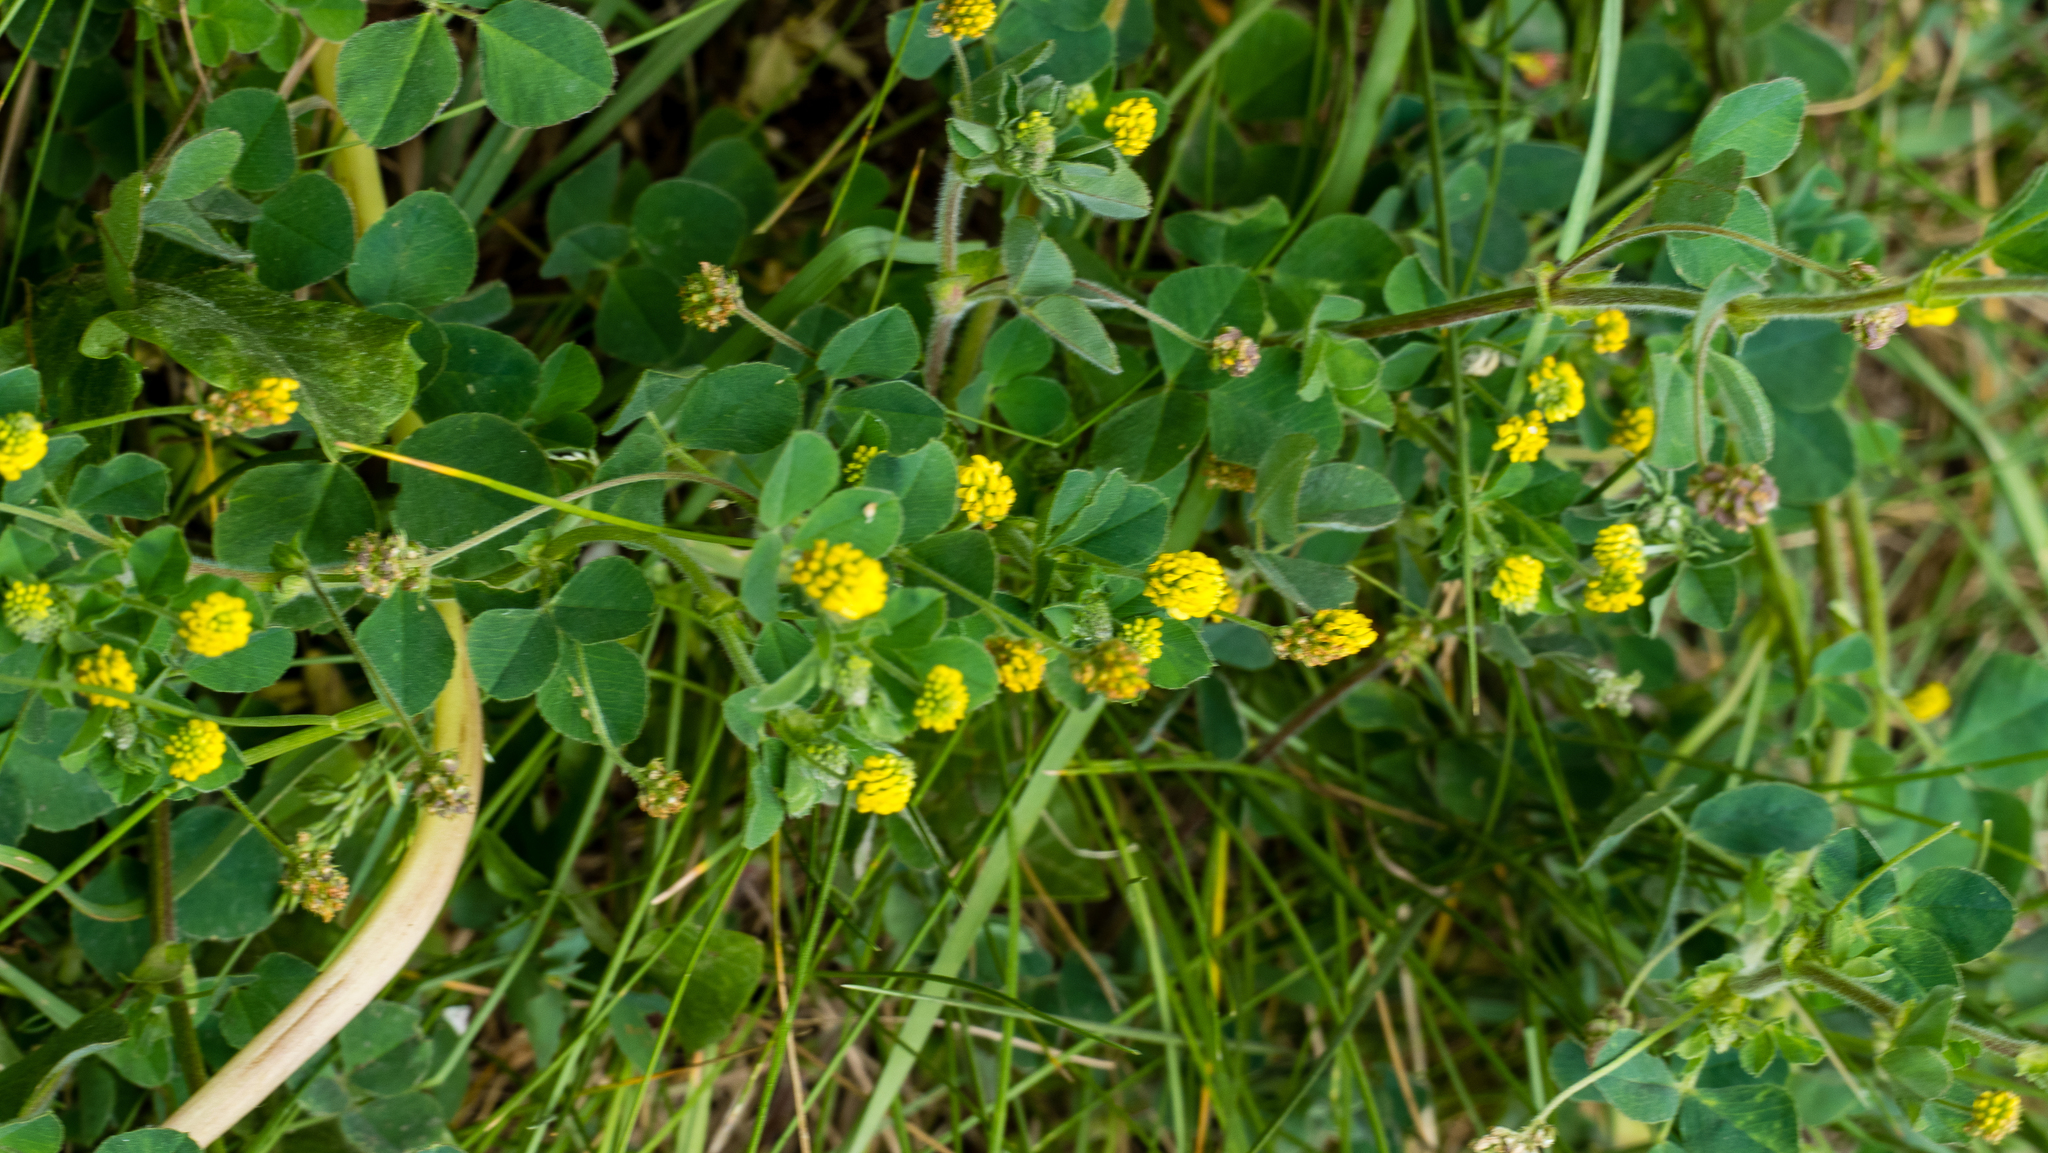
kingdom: Plantae
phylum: Tracheophyta
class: Magnoliopsida
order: Fabales
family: Fabaceae
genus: Medicago
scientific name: Medicago lupulina
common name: Black medick
